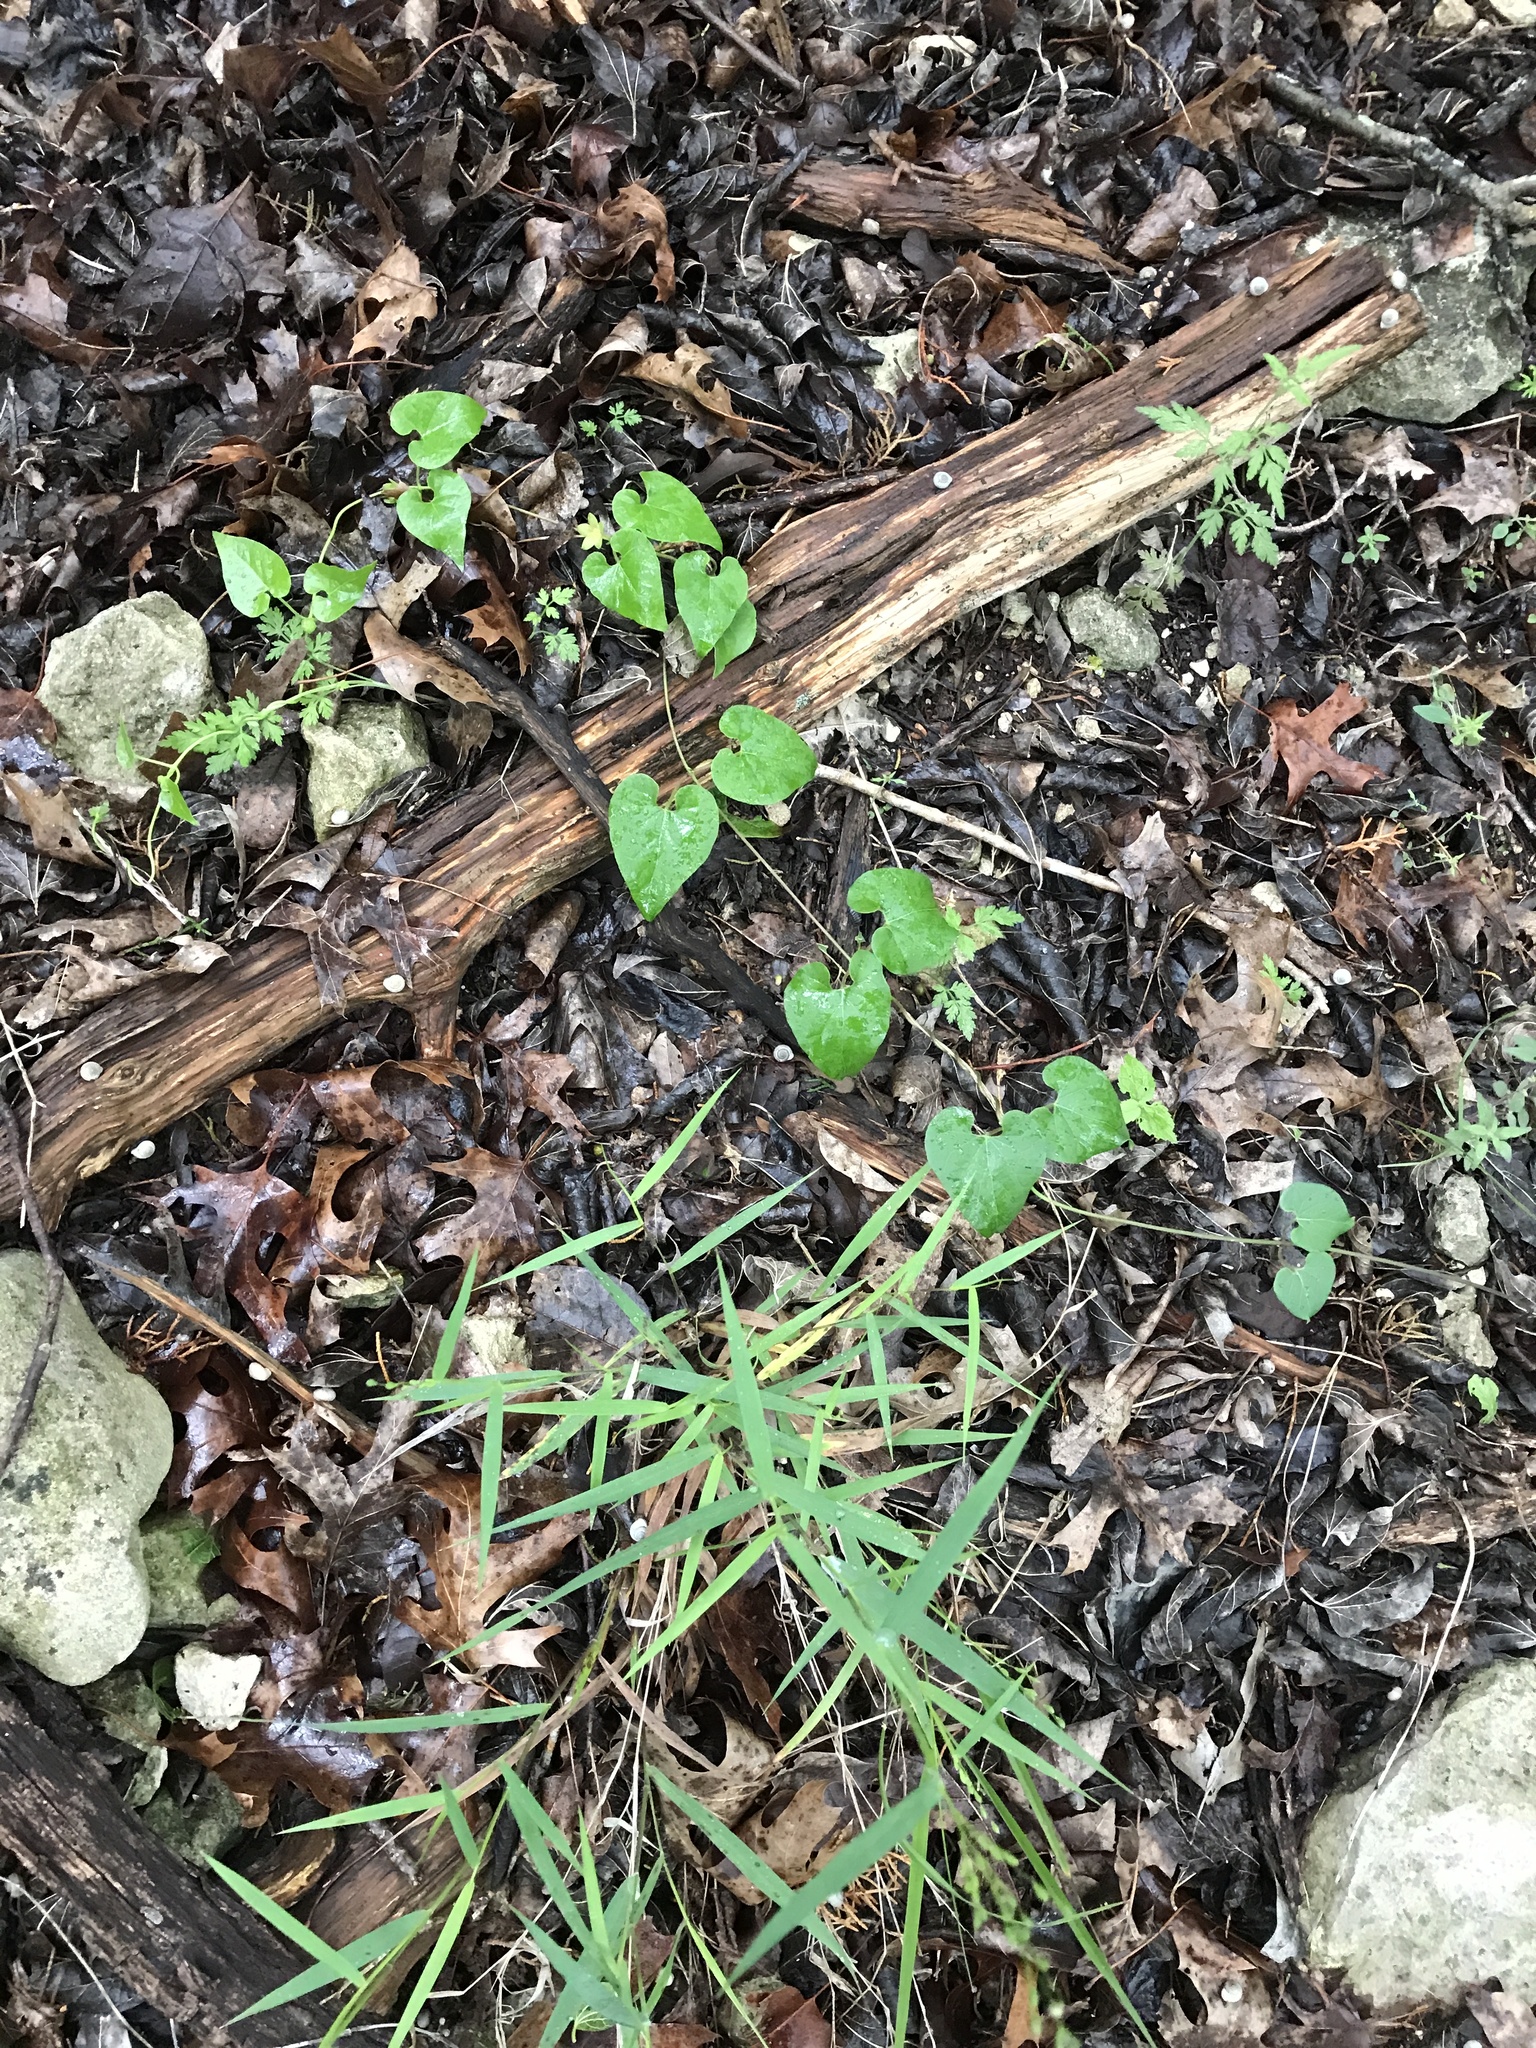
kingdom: Plantae
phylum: Tracheophyta
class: Magnoliopsida
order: Gentianales
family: Apocynaceae
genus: Matelea
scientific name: Matelea edwardsensis
